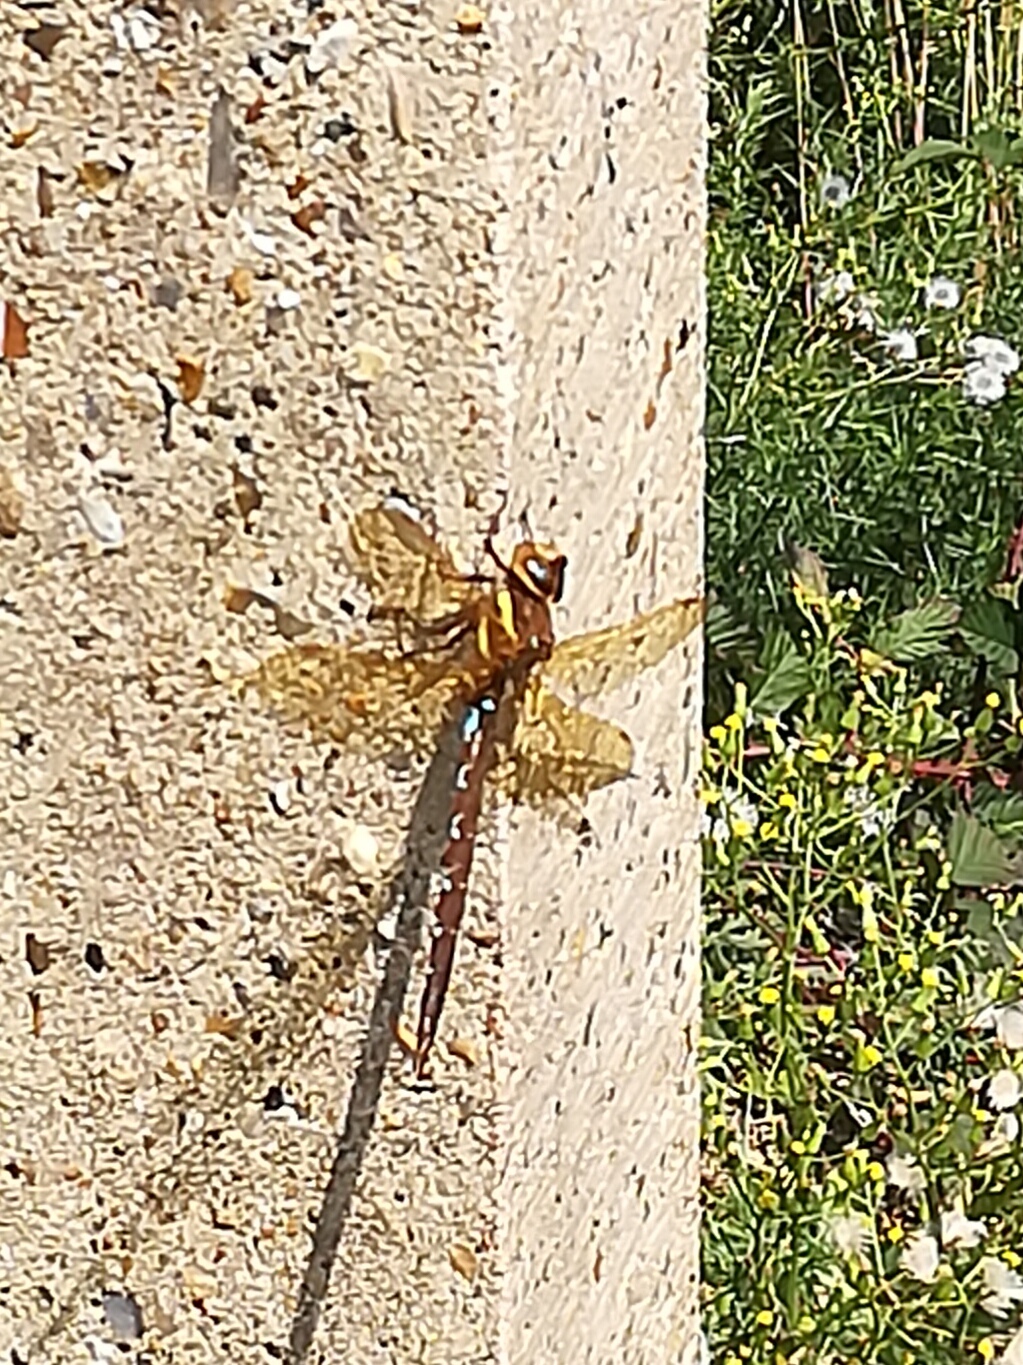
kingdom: Animalia
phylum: Arthropoda
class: Insecta
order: Odonata
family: Aeshnidae
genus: Aeshna
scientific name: Aeshna grandis
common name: Brown hawker
